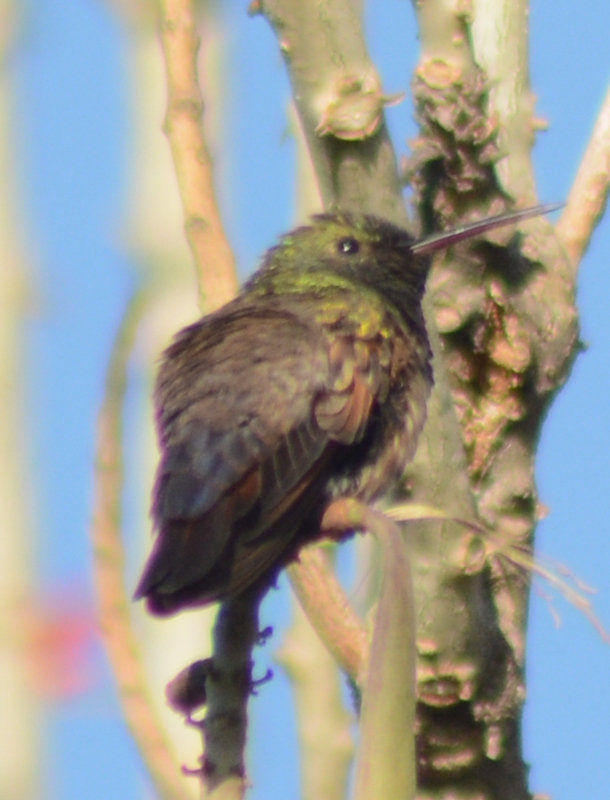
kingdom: Animalia
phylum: Chordata
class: Aves
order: Apodiformes
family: Trochilidae
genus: Saucerottia
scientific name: Saucerottia beryllina
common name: Berylline hummingbird
